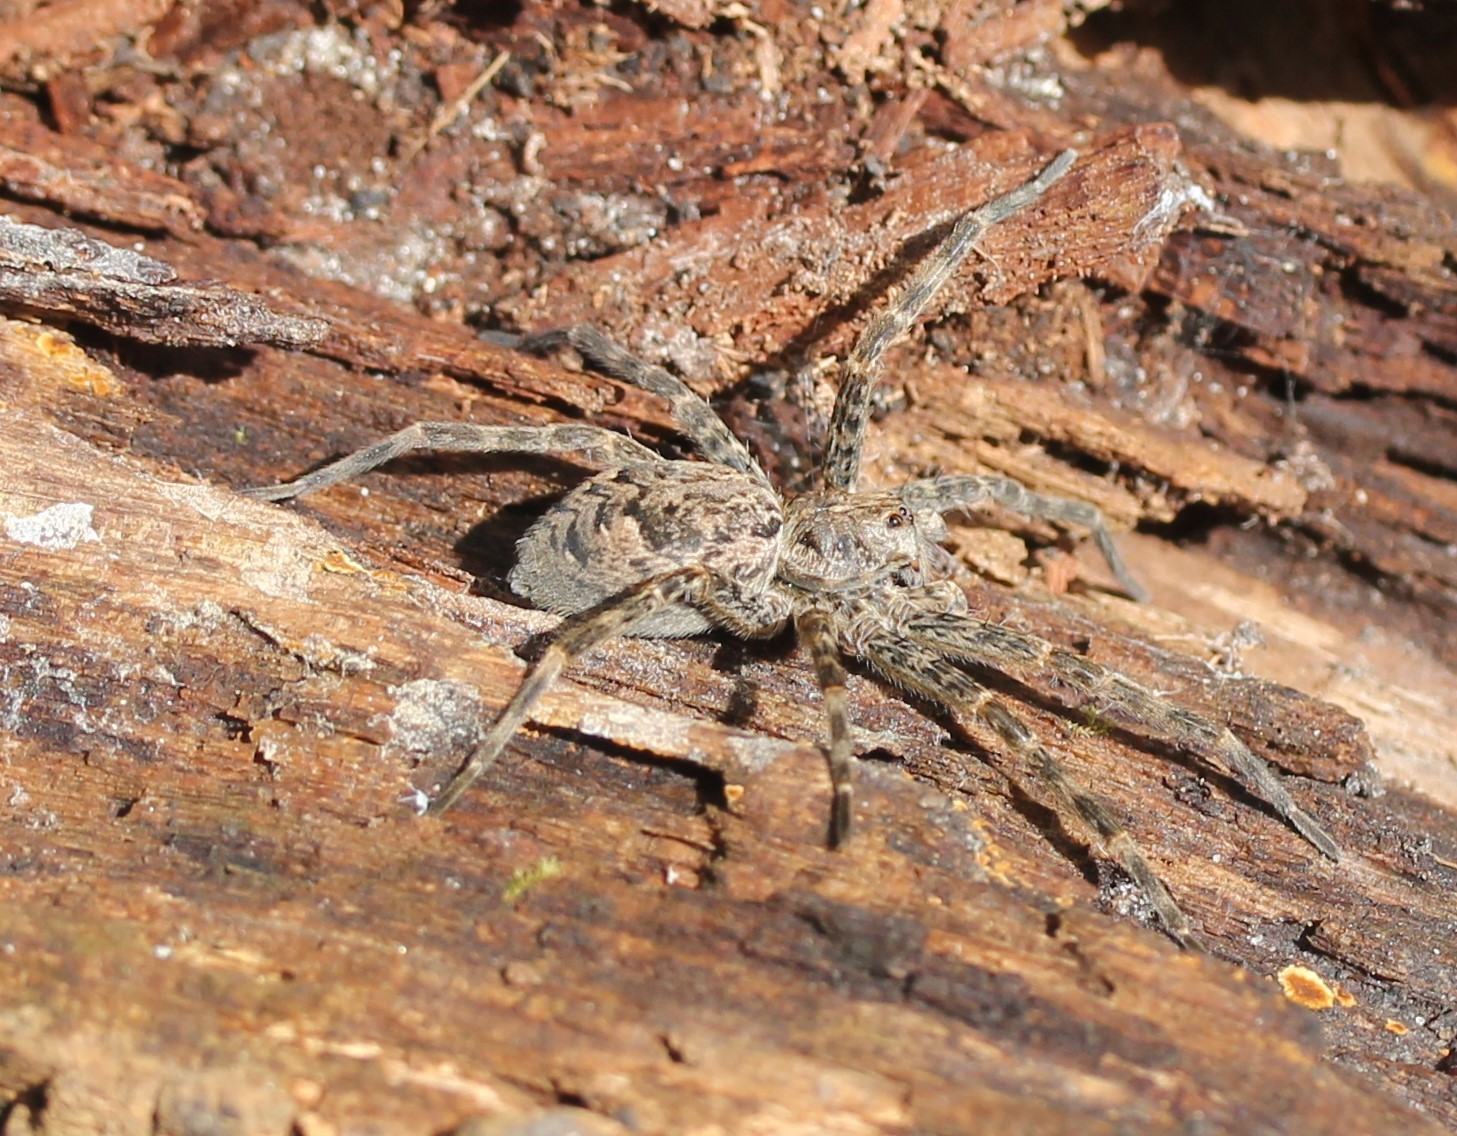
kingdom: Animalia
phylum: Arthropoda
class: Arachnida
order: Araneae
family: Pisauridae
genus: Dolomedes
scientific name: Dolomedes tenebrosus
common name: Dark fishing spider
